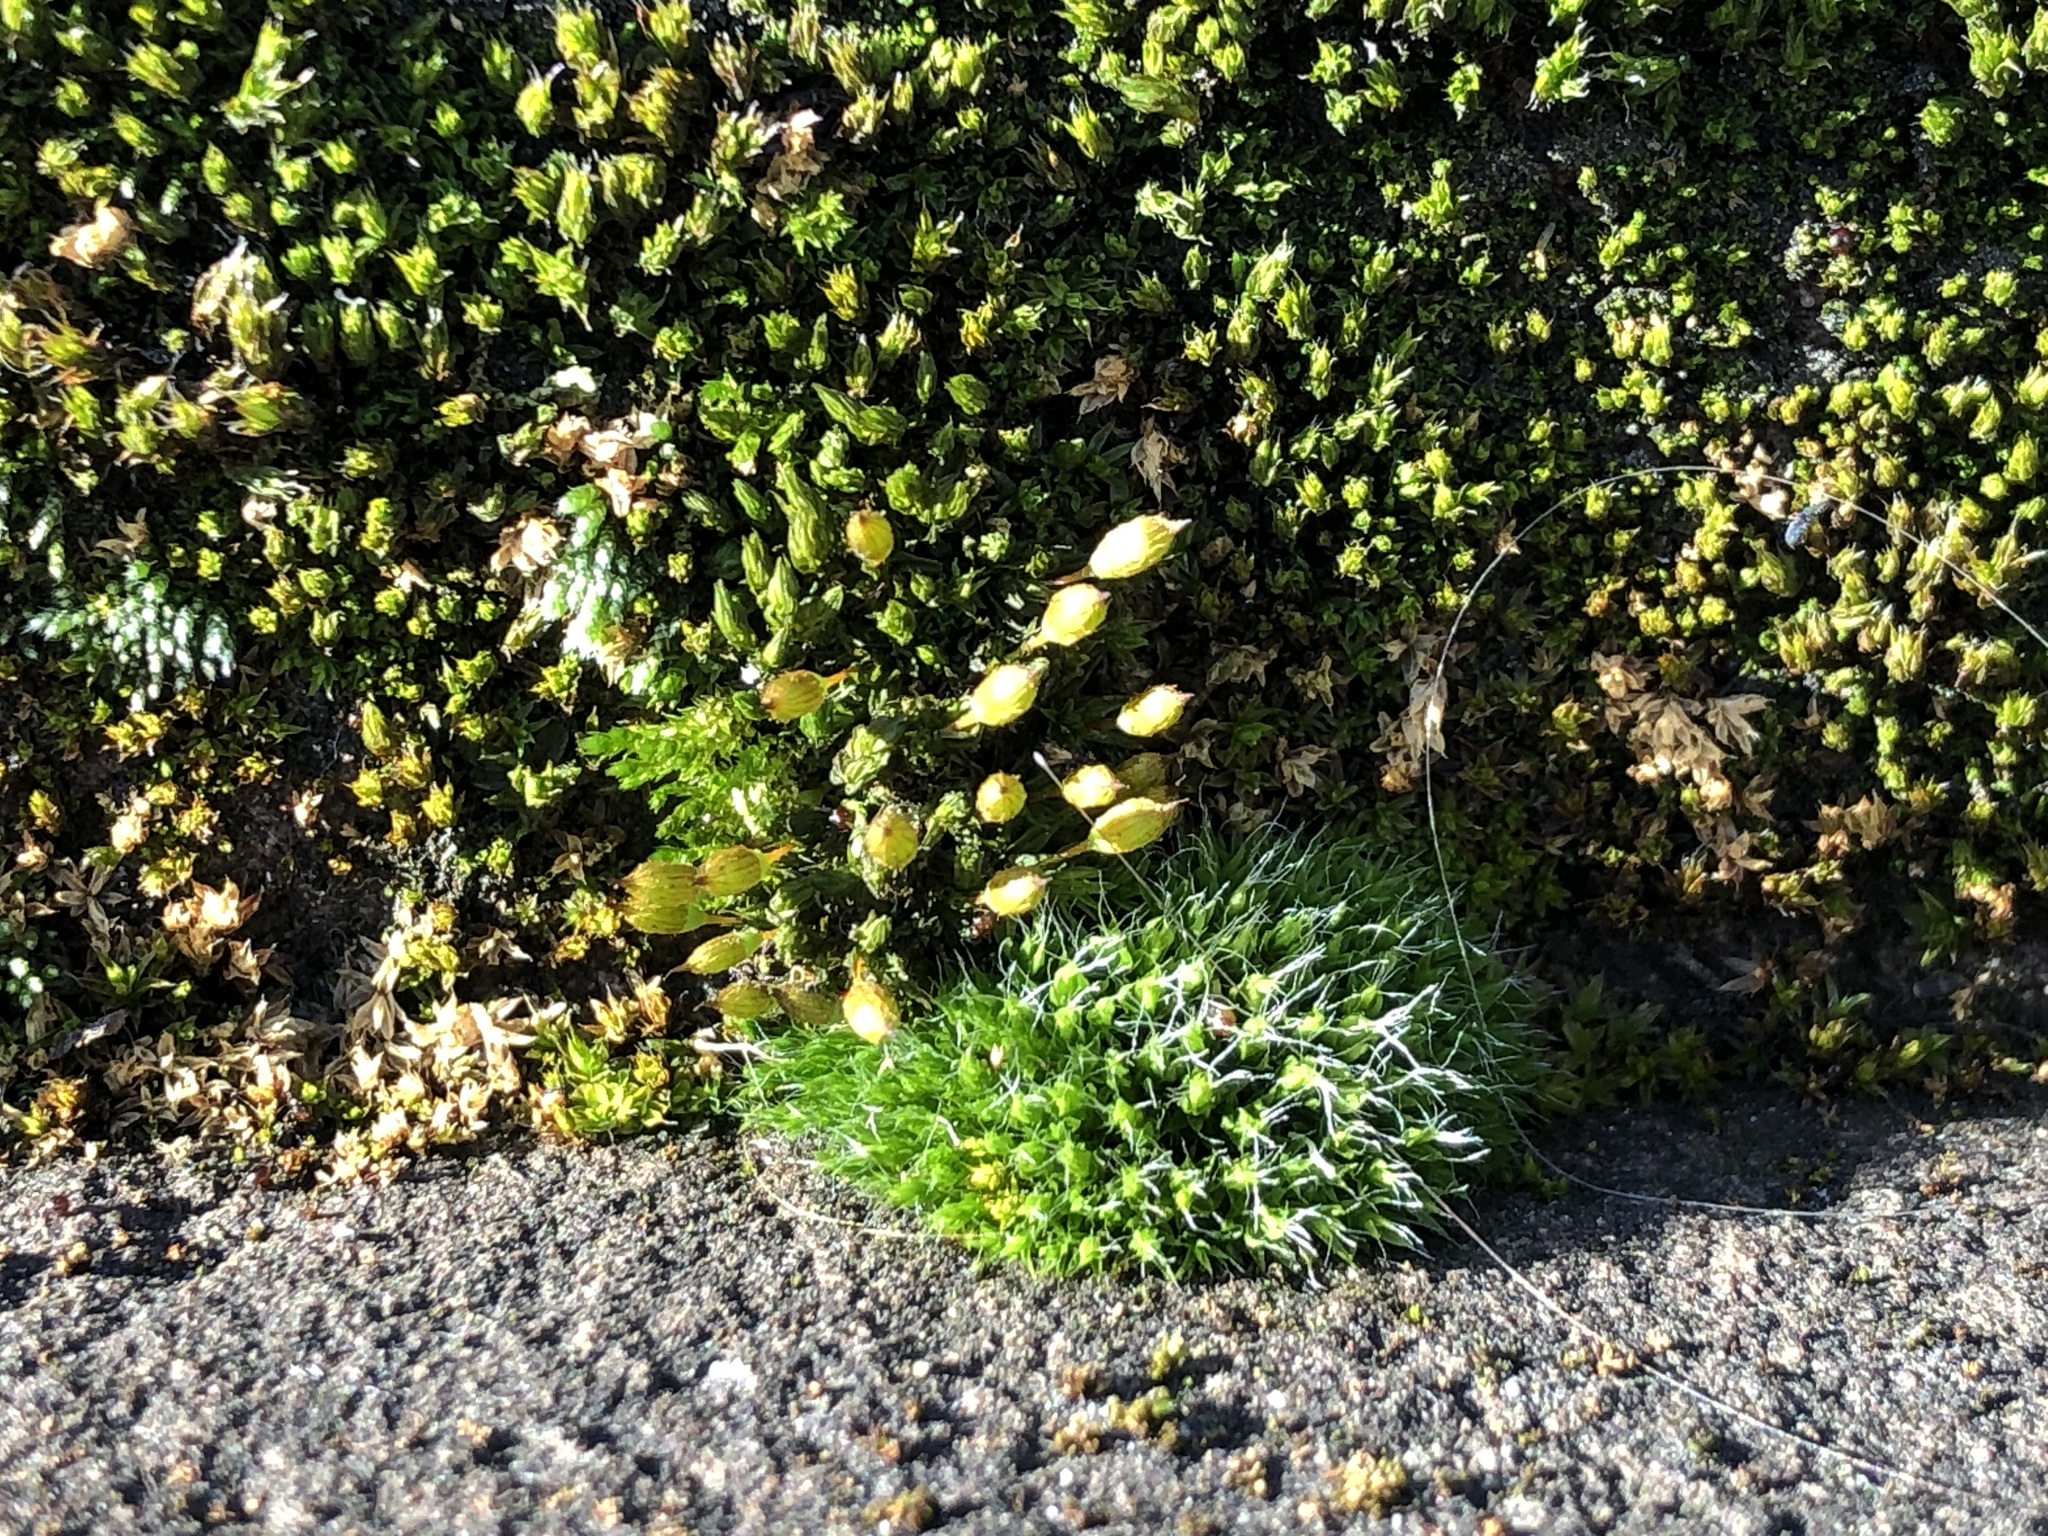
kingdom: Plantae
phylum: Bryophyta
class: Bryopsida
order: Orthotrichales
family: Orthotrichaceae
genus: Orthotrichum
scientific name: Orthotrichum anomalum
